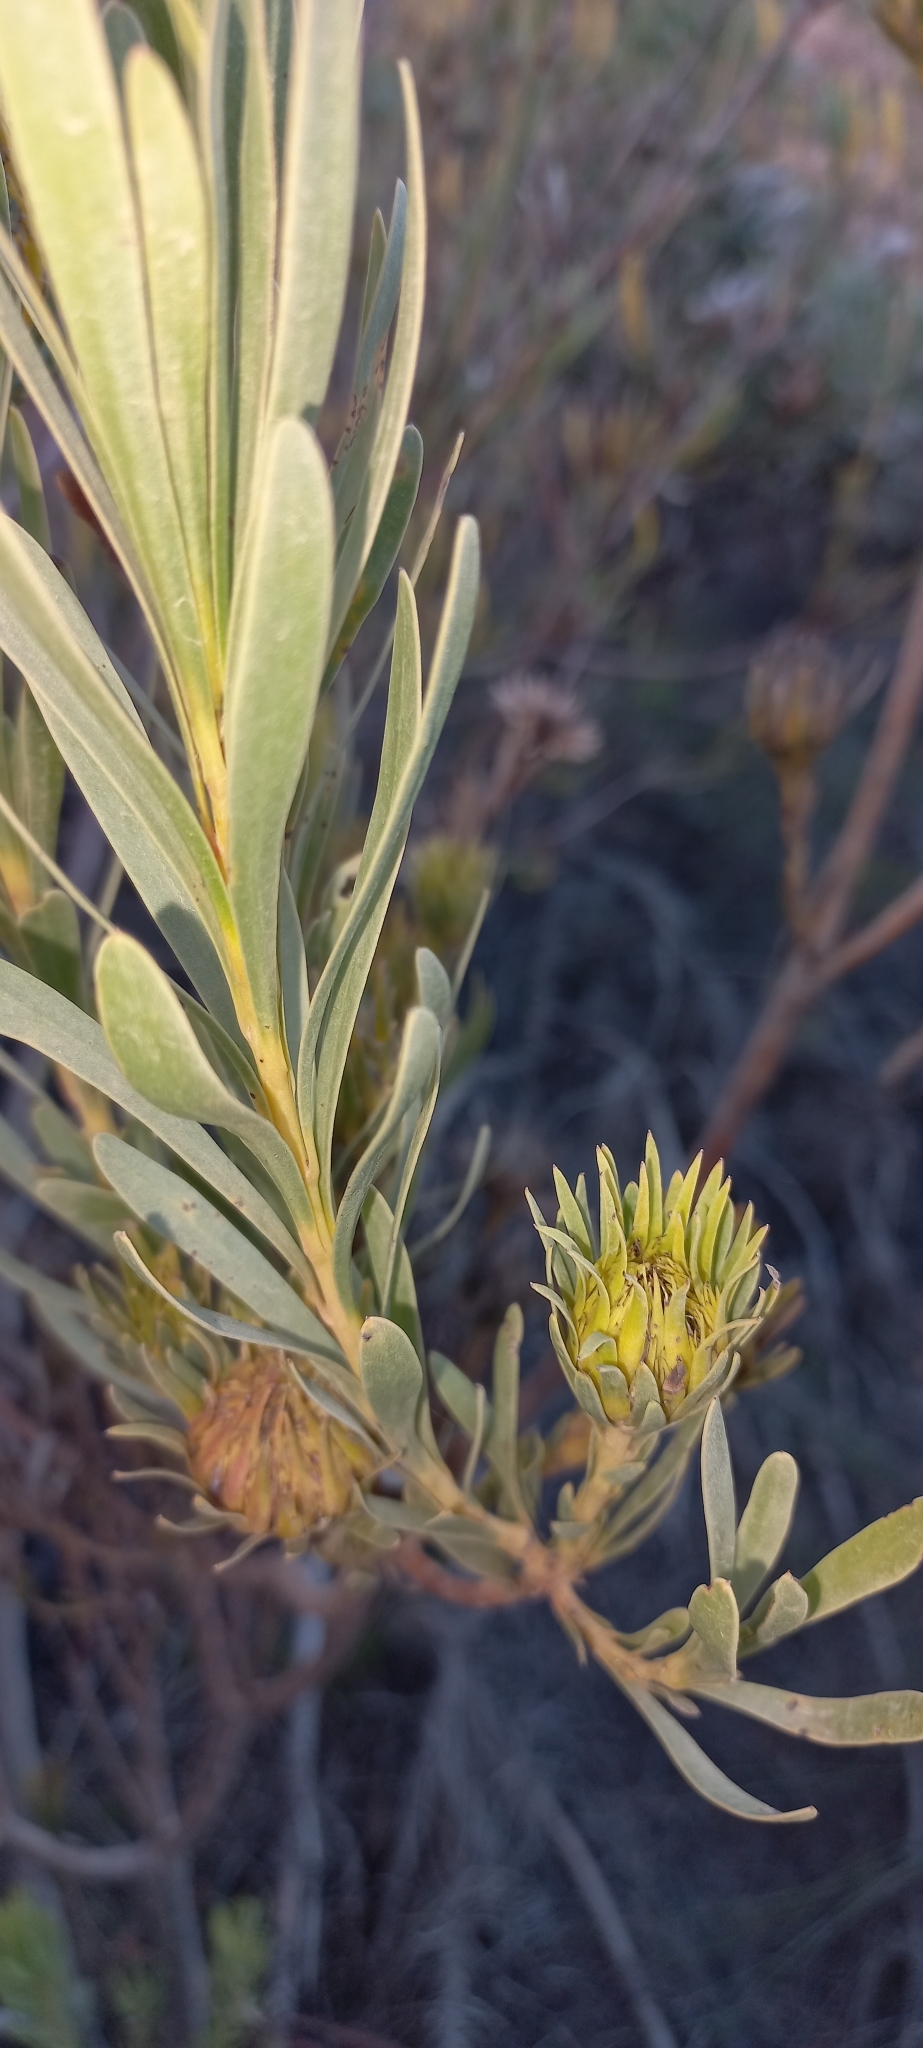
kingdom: Plantae
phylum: Tracheophyta
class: Magnoliopsida
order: Proteales
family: Proteaceae
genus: Aulax
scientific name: Aulax umbellata
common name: Broad-leaf featherbush
